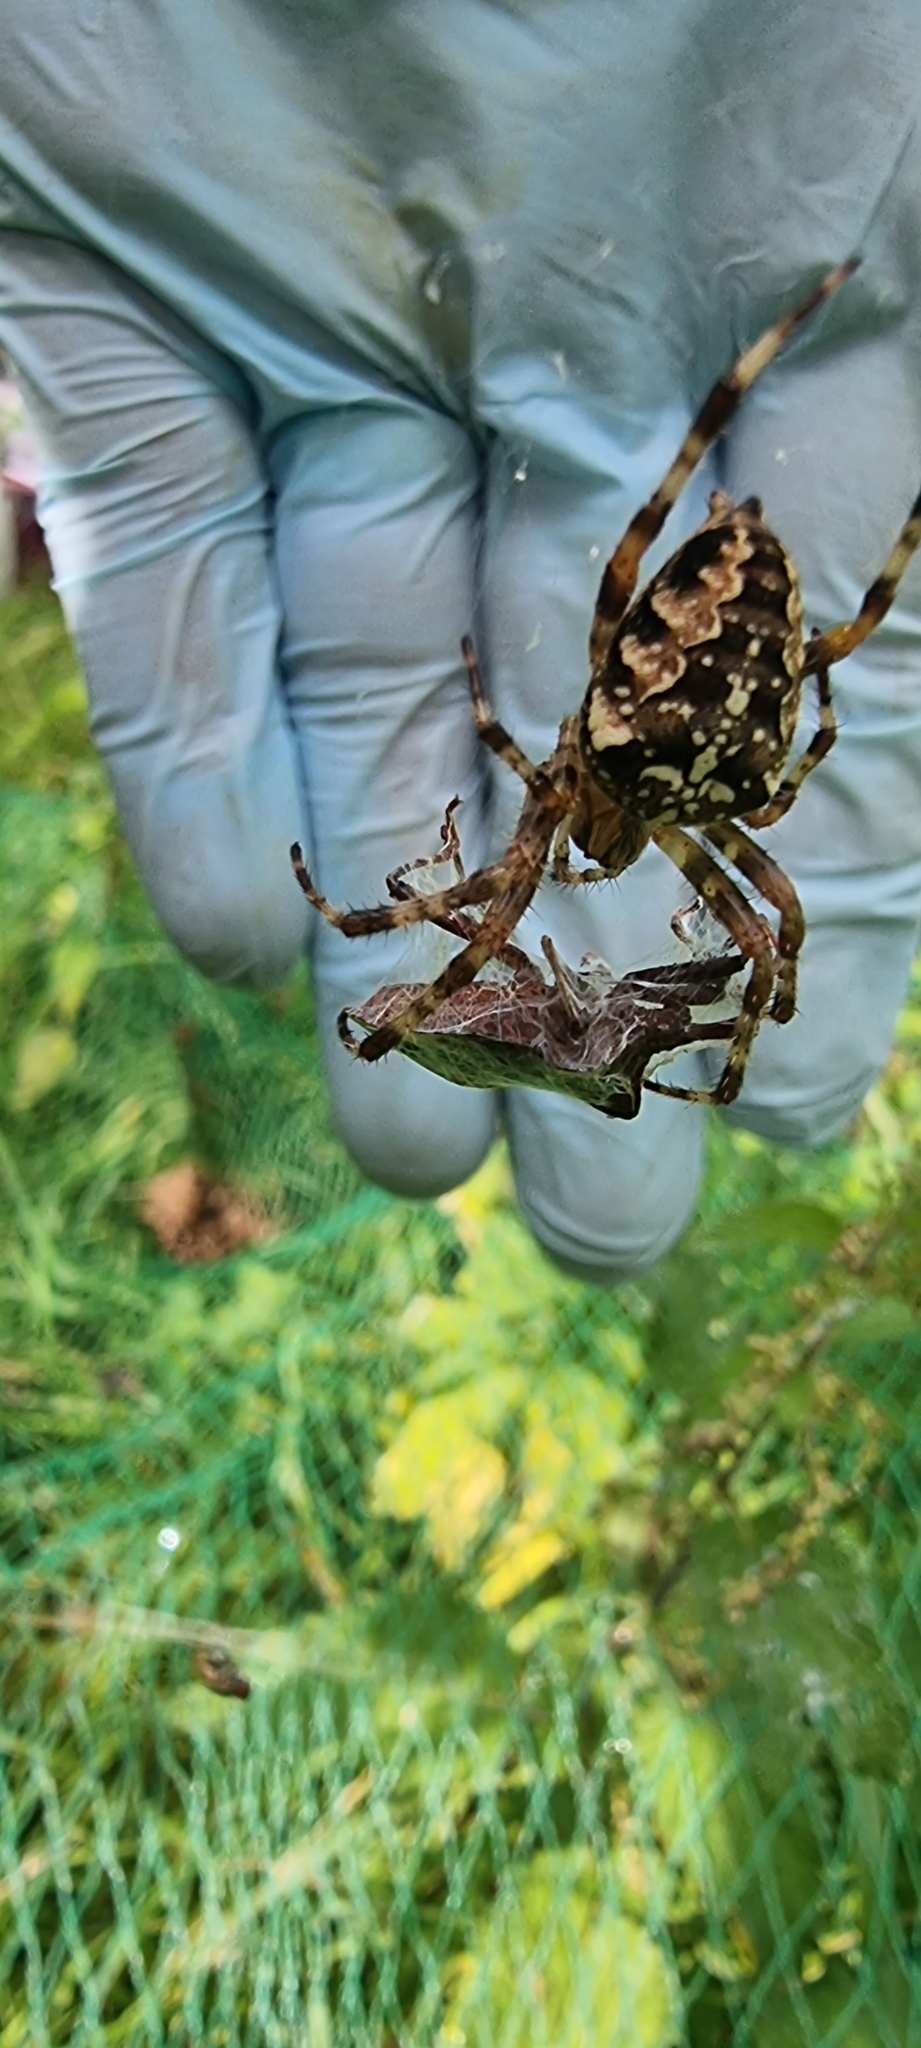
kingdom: Animalia
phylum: Arthropoda
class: Arachnida
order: Araneae
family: Araneidae
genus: Araneus
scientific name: Araneus diadematus
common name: Cross orbweaver
